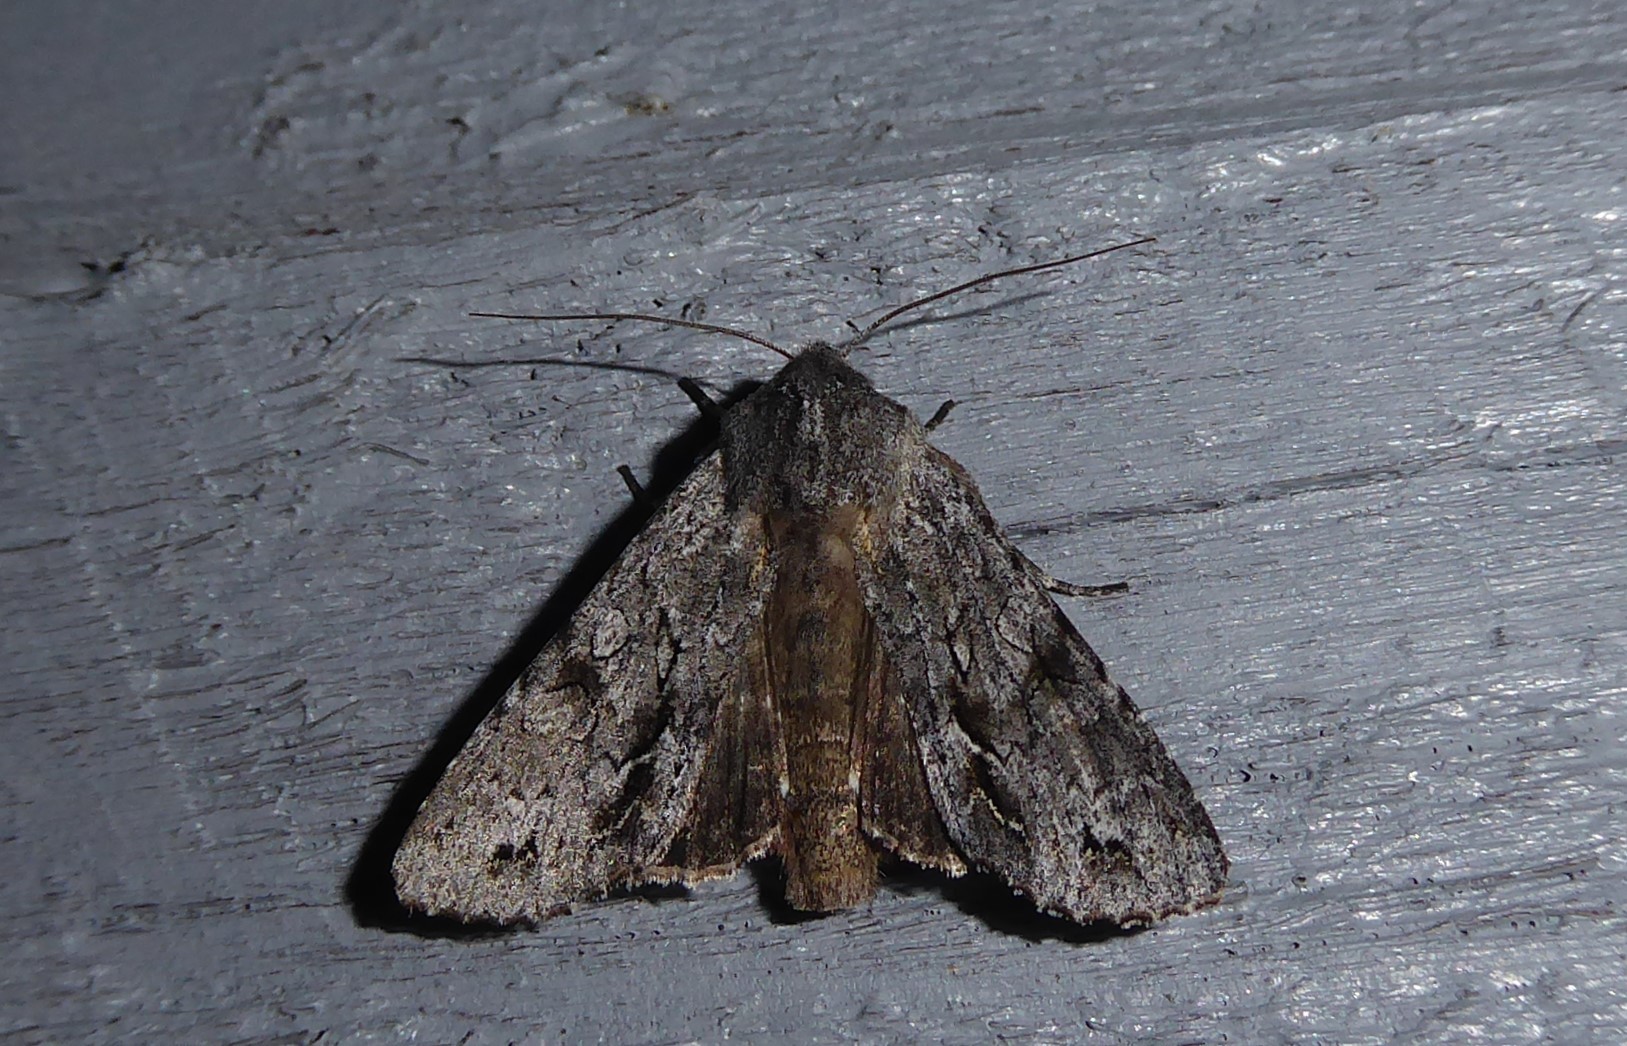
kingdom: Animalia
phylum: Arthropoda
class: Insecta
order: Lepidoptera
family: Noctuidae
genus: Ichneutica
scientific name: Ichneutica
